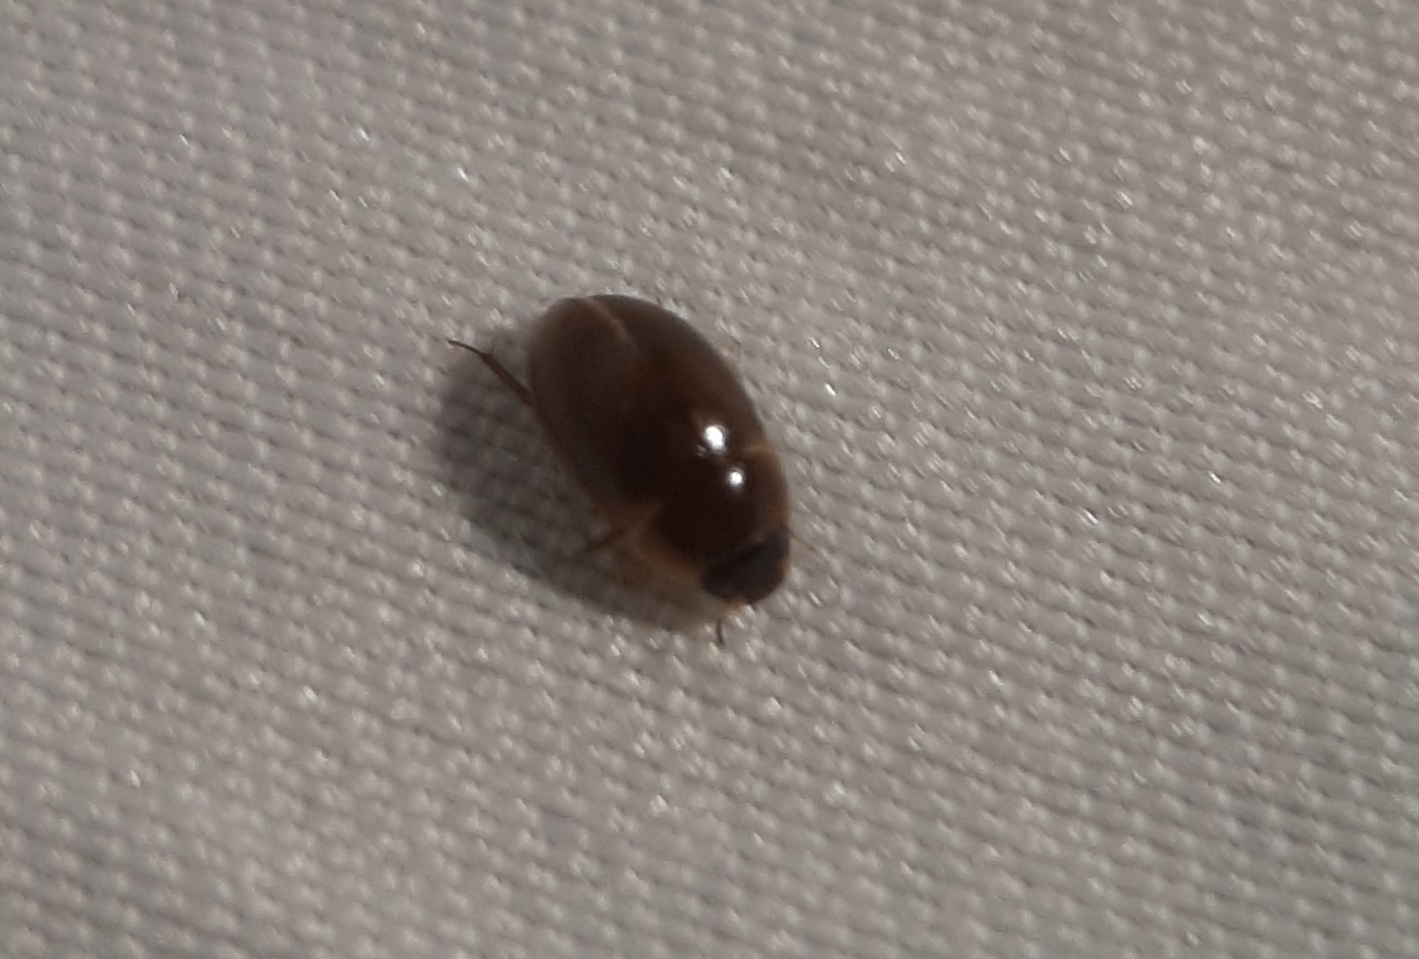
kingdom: Animalia
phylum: Arthropoda
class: Insecta
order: Coleoptera
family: Hydrophilidae
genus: Enochrus
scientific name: Enochrus
